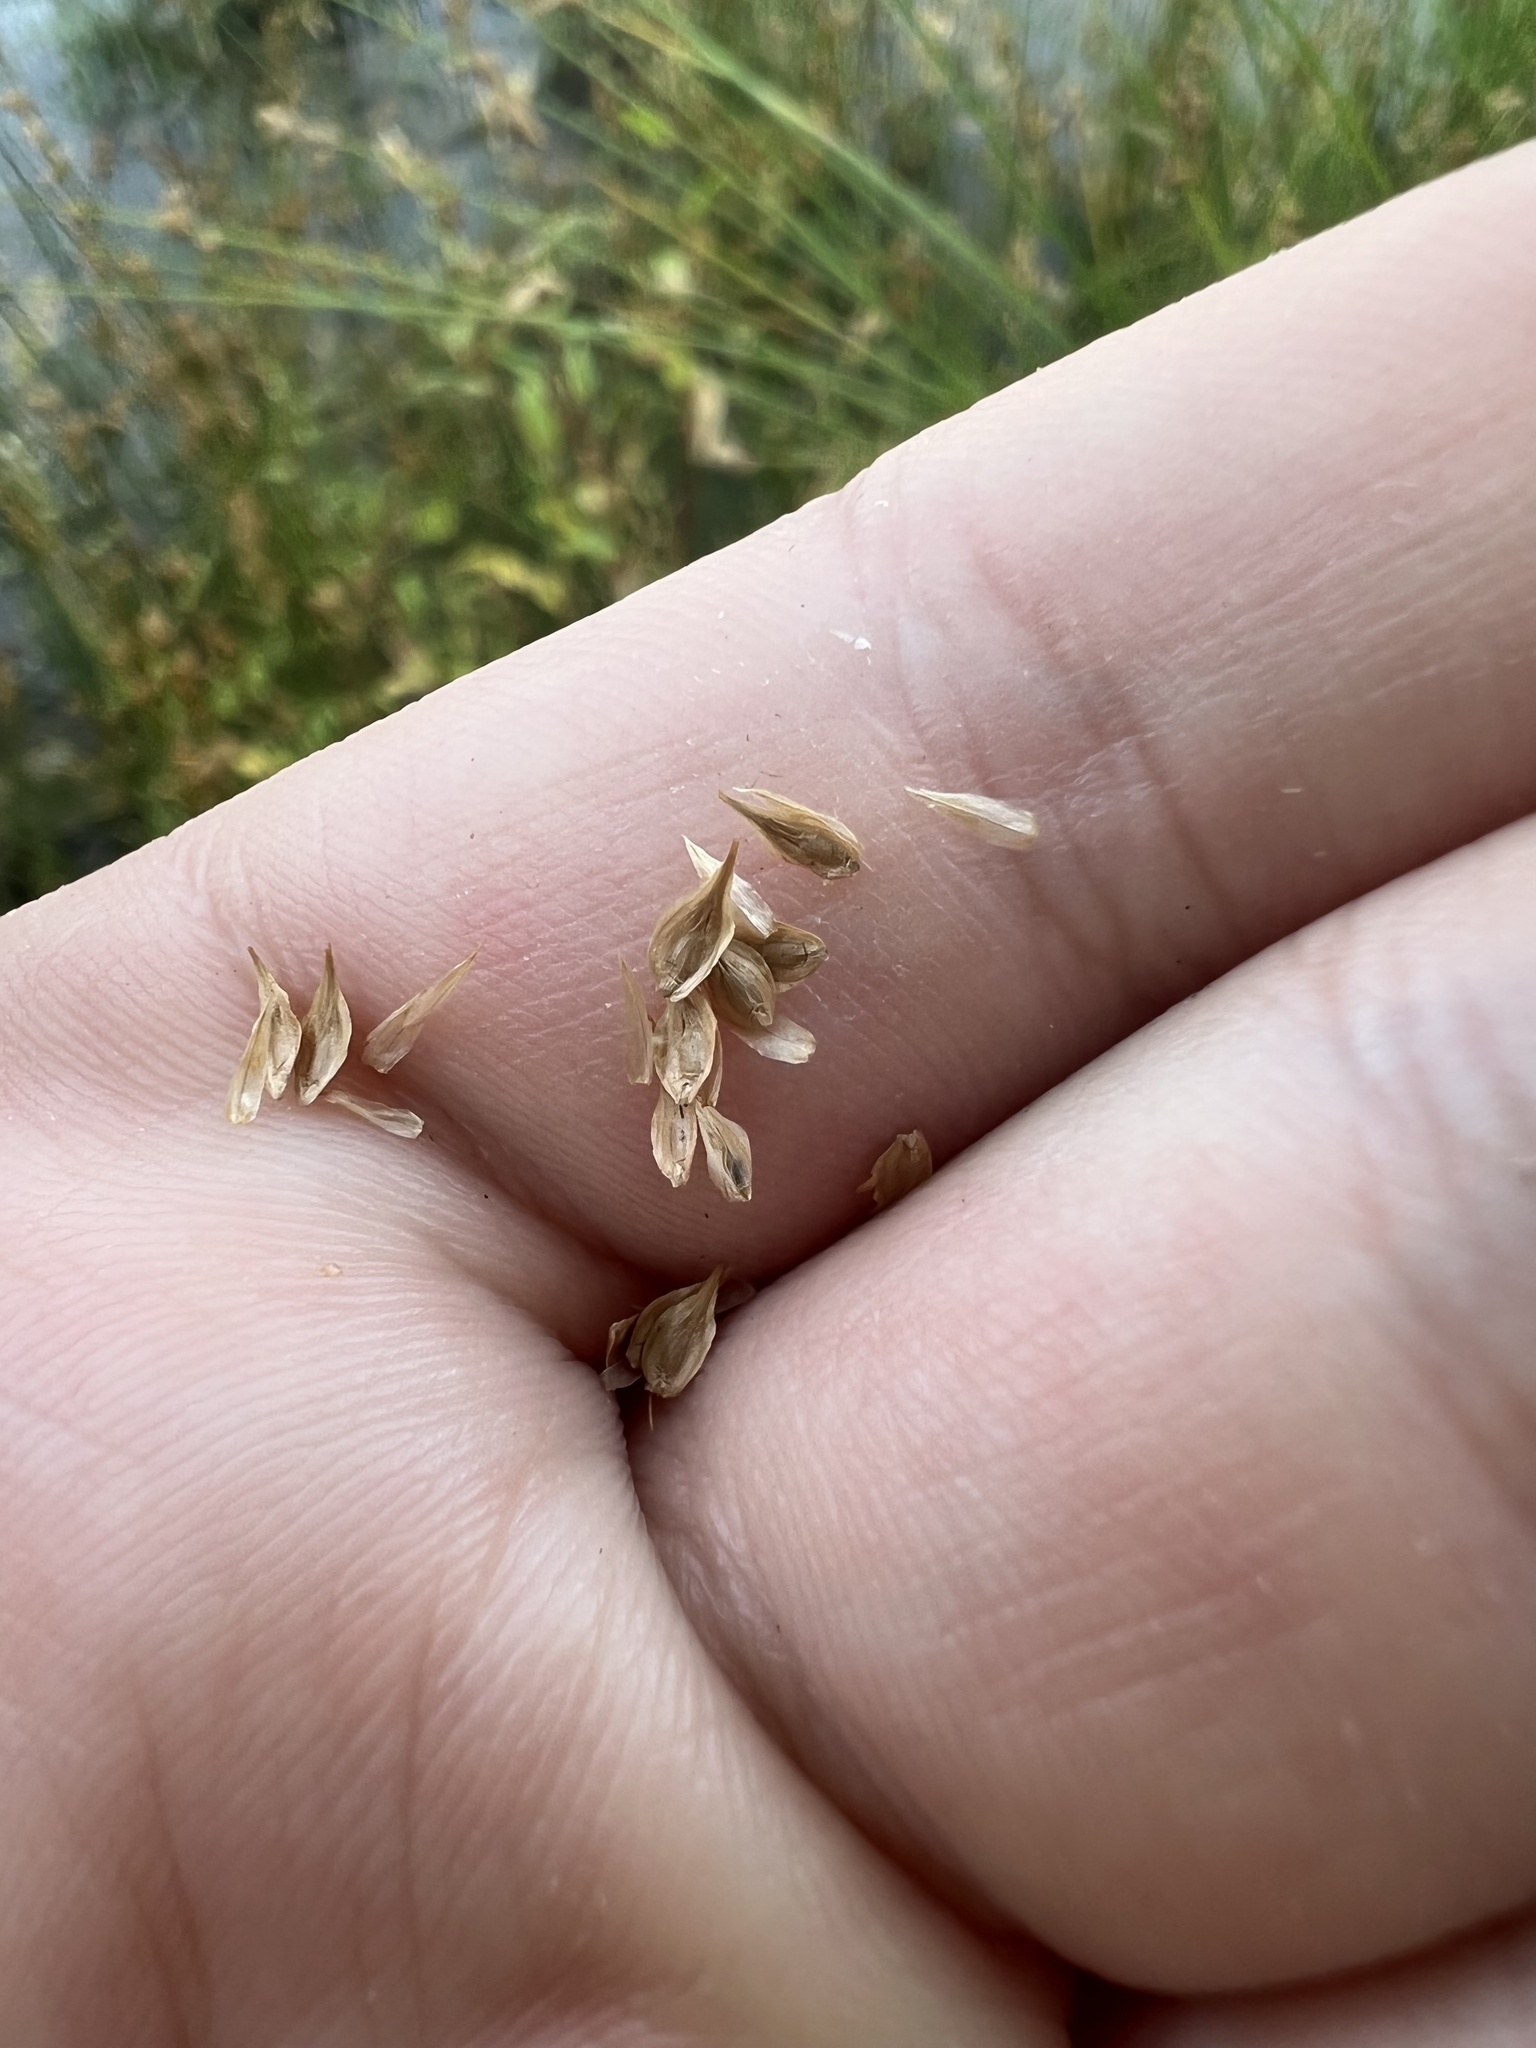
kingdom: Plantae
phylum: Tracheophyta
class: Liliopsida
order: Poales
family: Cyperaceae
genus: Carex
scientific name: Carex pachystachya
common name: Chamisso's sedge
